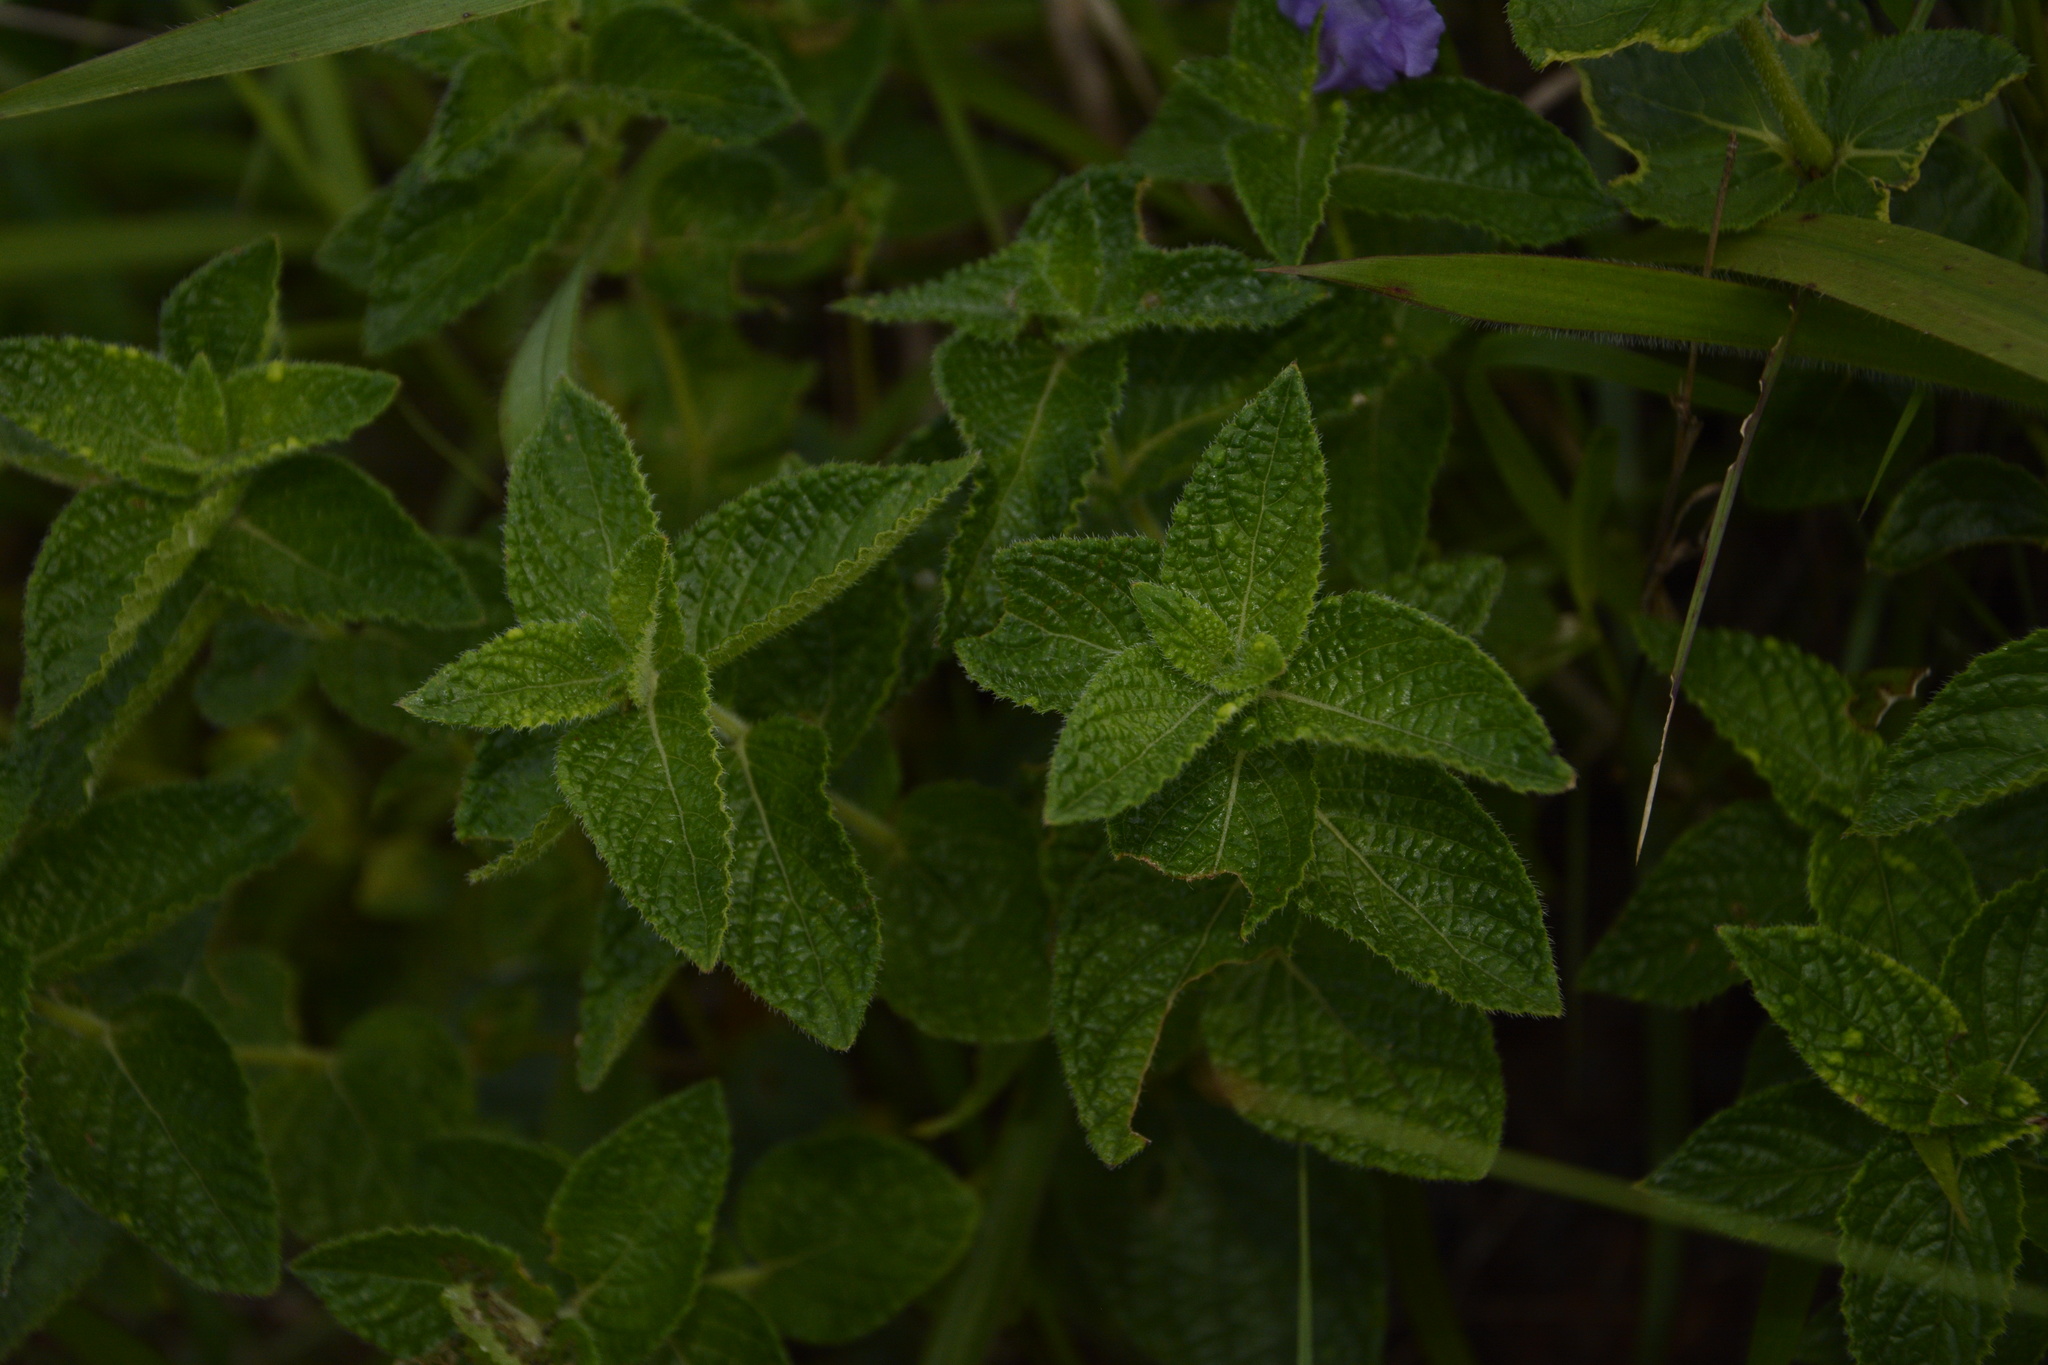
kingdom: Plantae
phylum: Tracheophyta
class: Magnoliopsida
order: Lamiales
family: Acanthaceae
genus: Strobilanthes
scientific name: Strobilanthes sessilis
